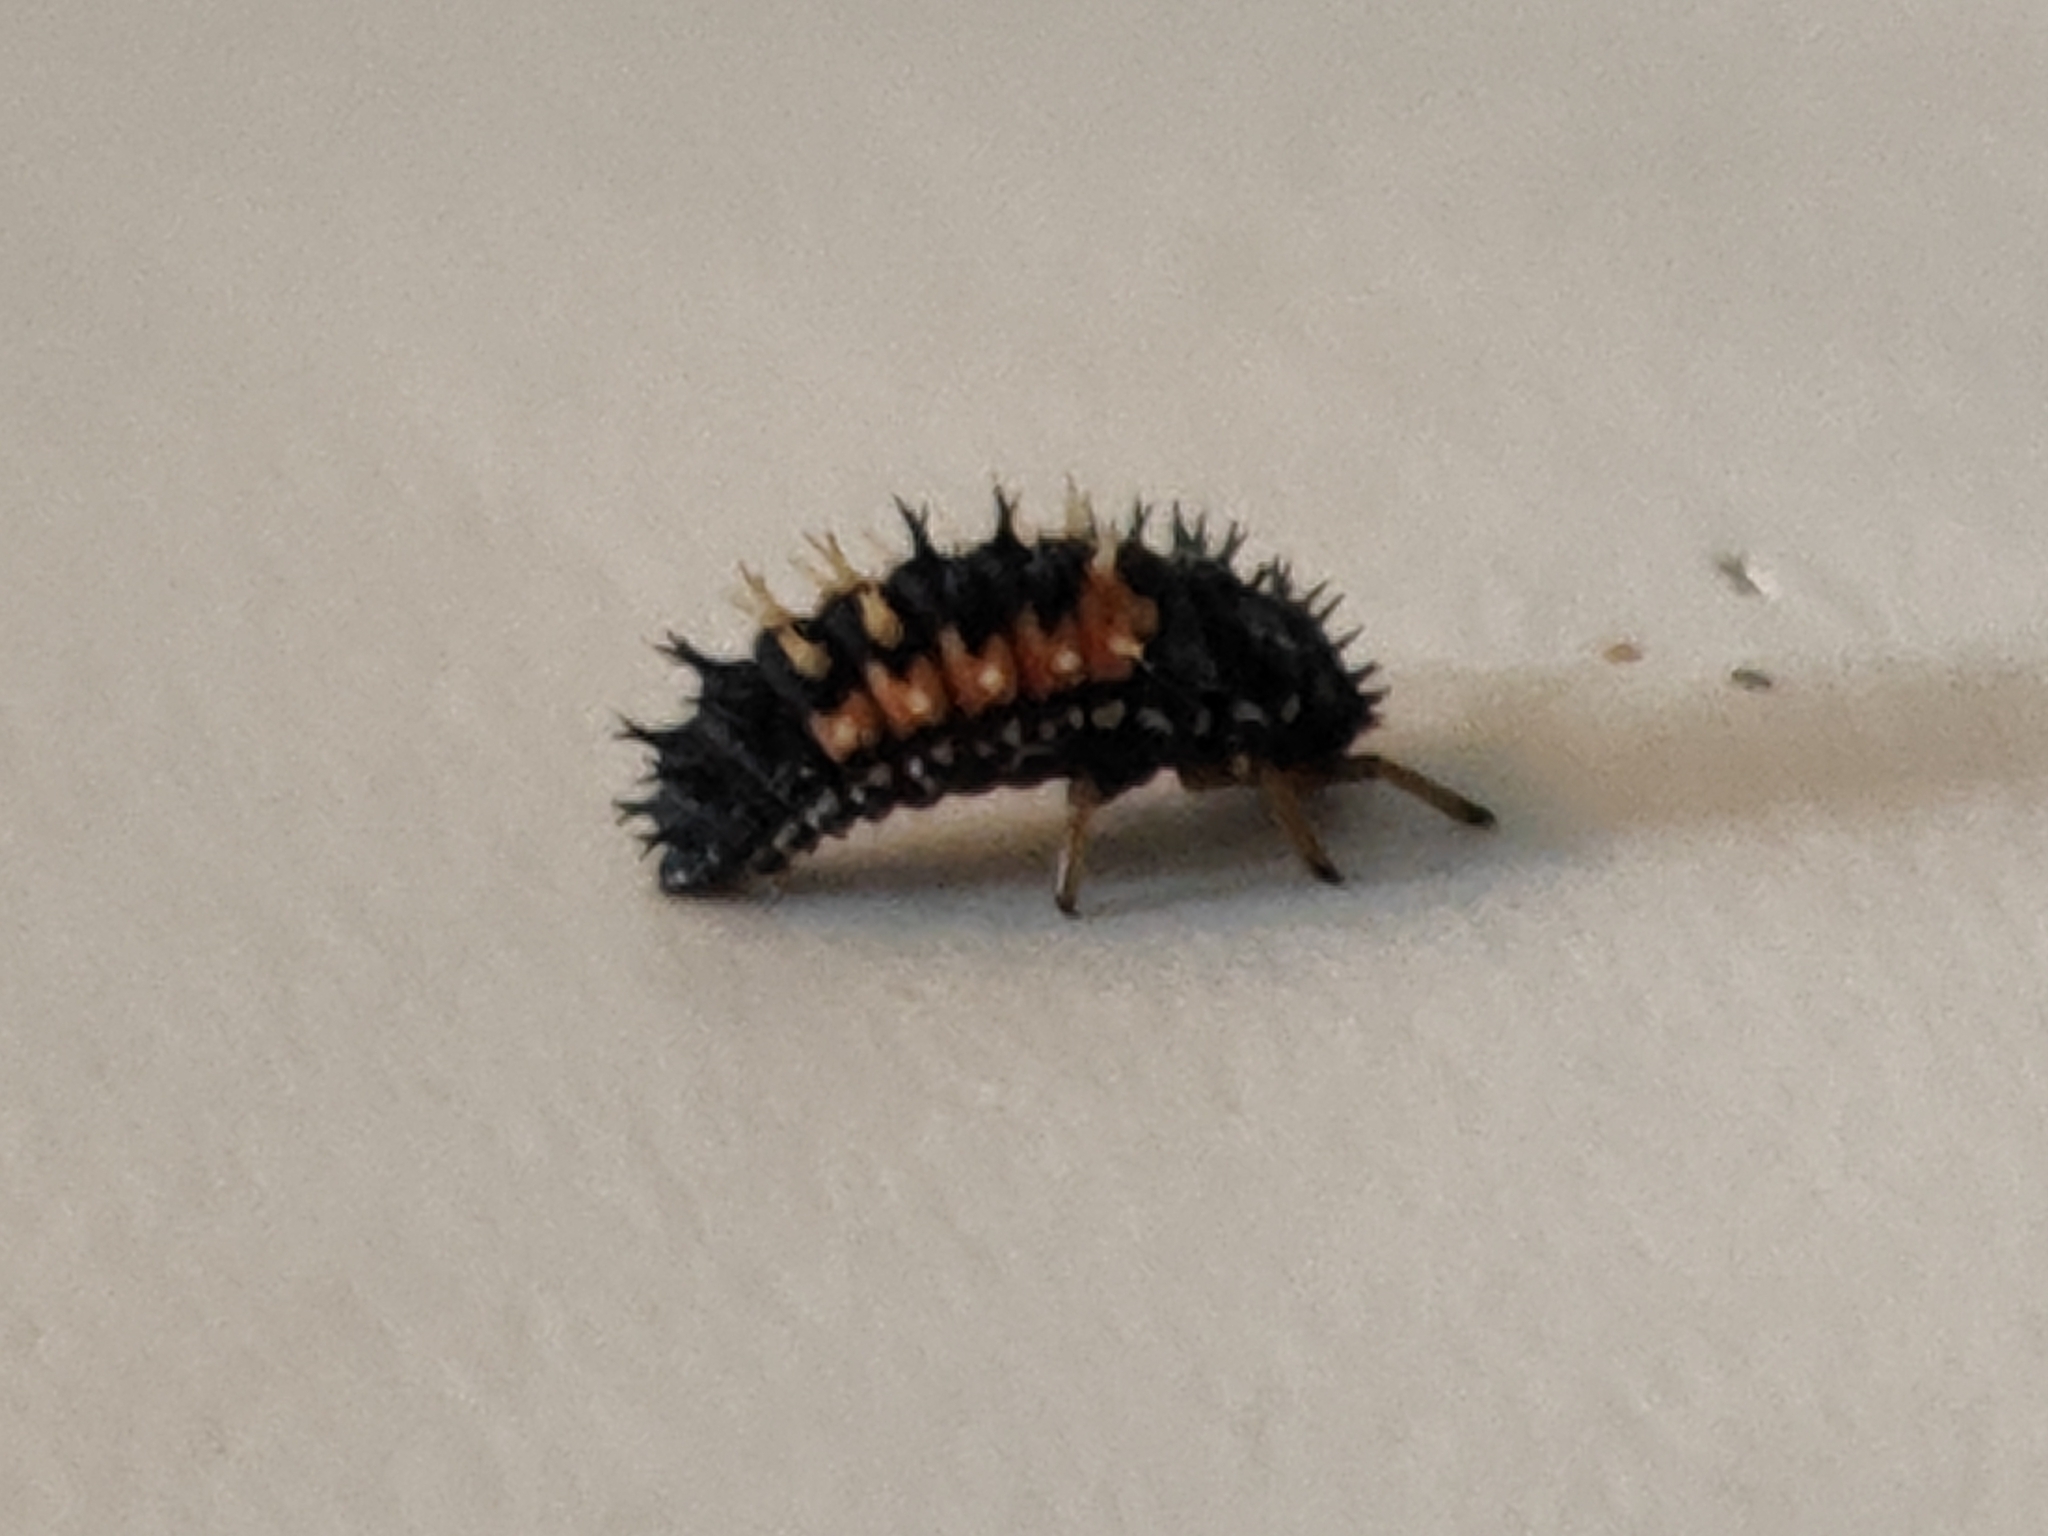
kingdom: Animalia
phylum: Arthropoda
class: Insecta
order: Coleoptera
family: Coccinellidae
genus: Harmonia
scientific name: Harmonia axyridis
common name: Harlequin ladybird
